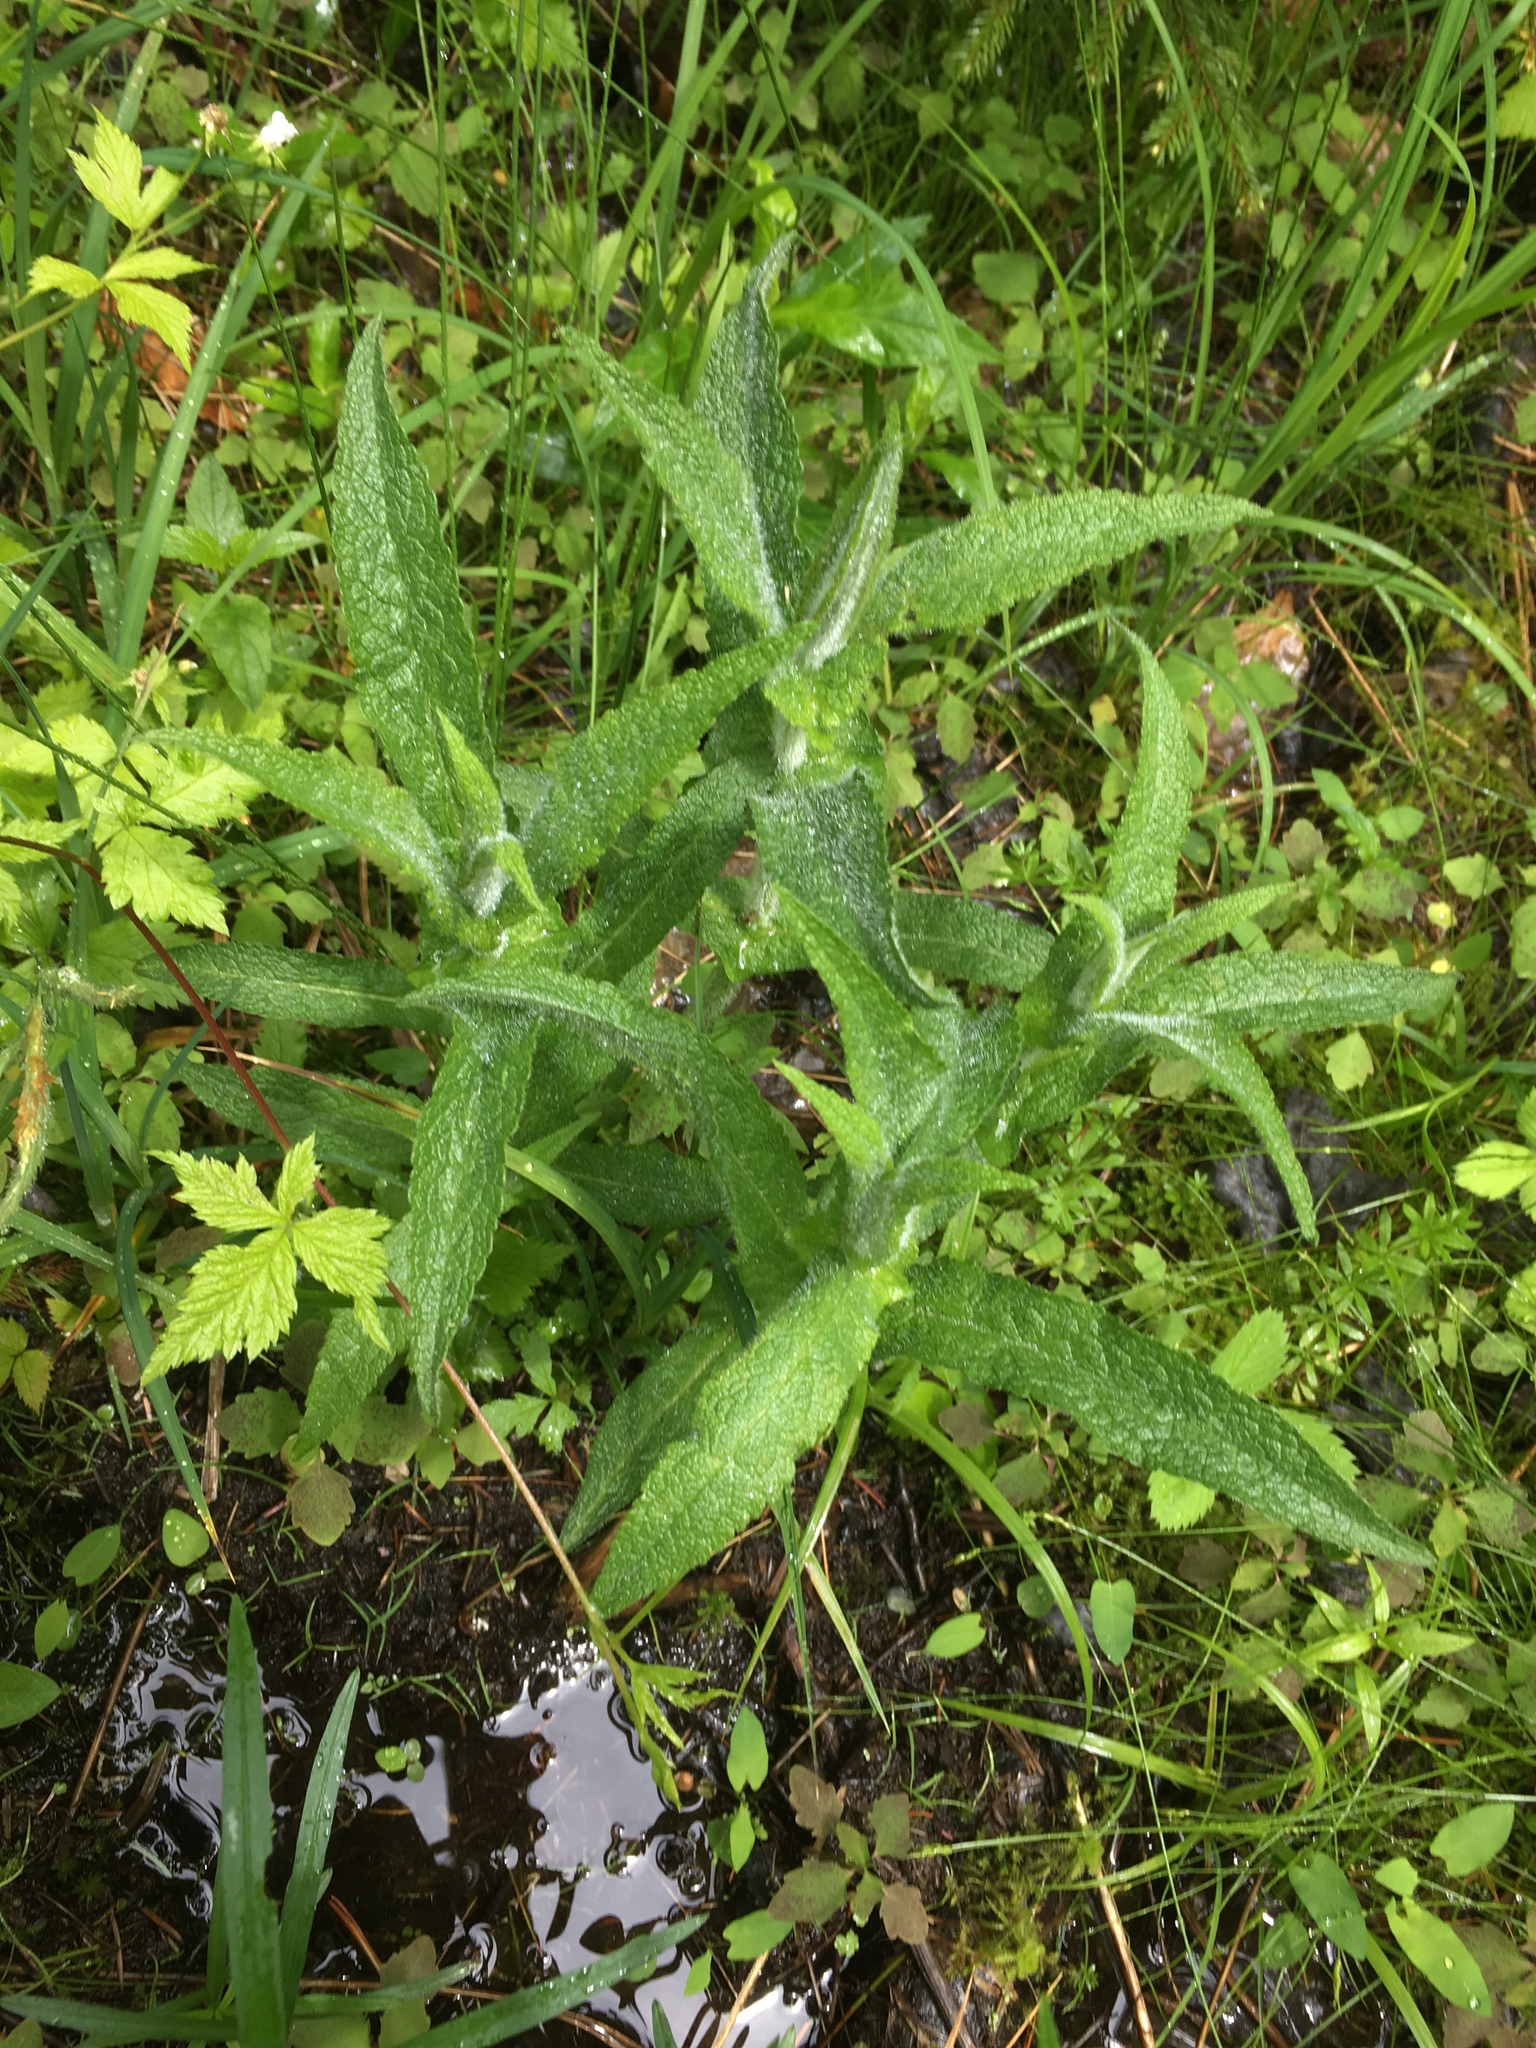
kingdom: Plantae
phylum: Tracheophyta
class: Magnoliopsida
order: Asterales
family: Asteraceae
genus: Eupatorium
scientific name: Eupatorium perfoliatum
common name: Boneset
